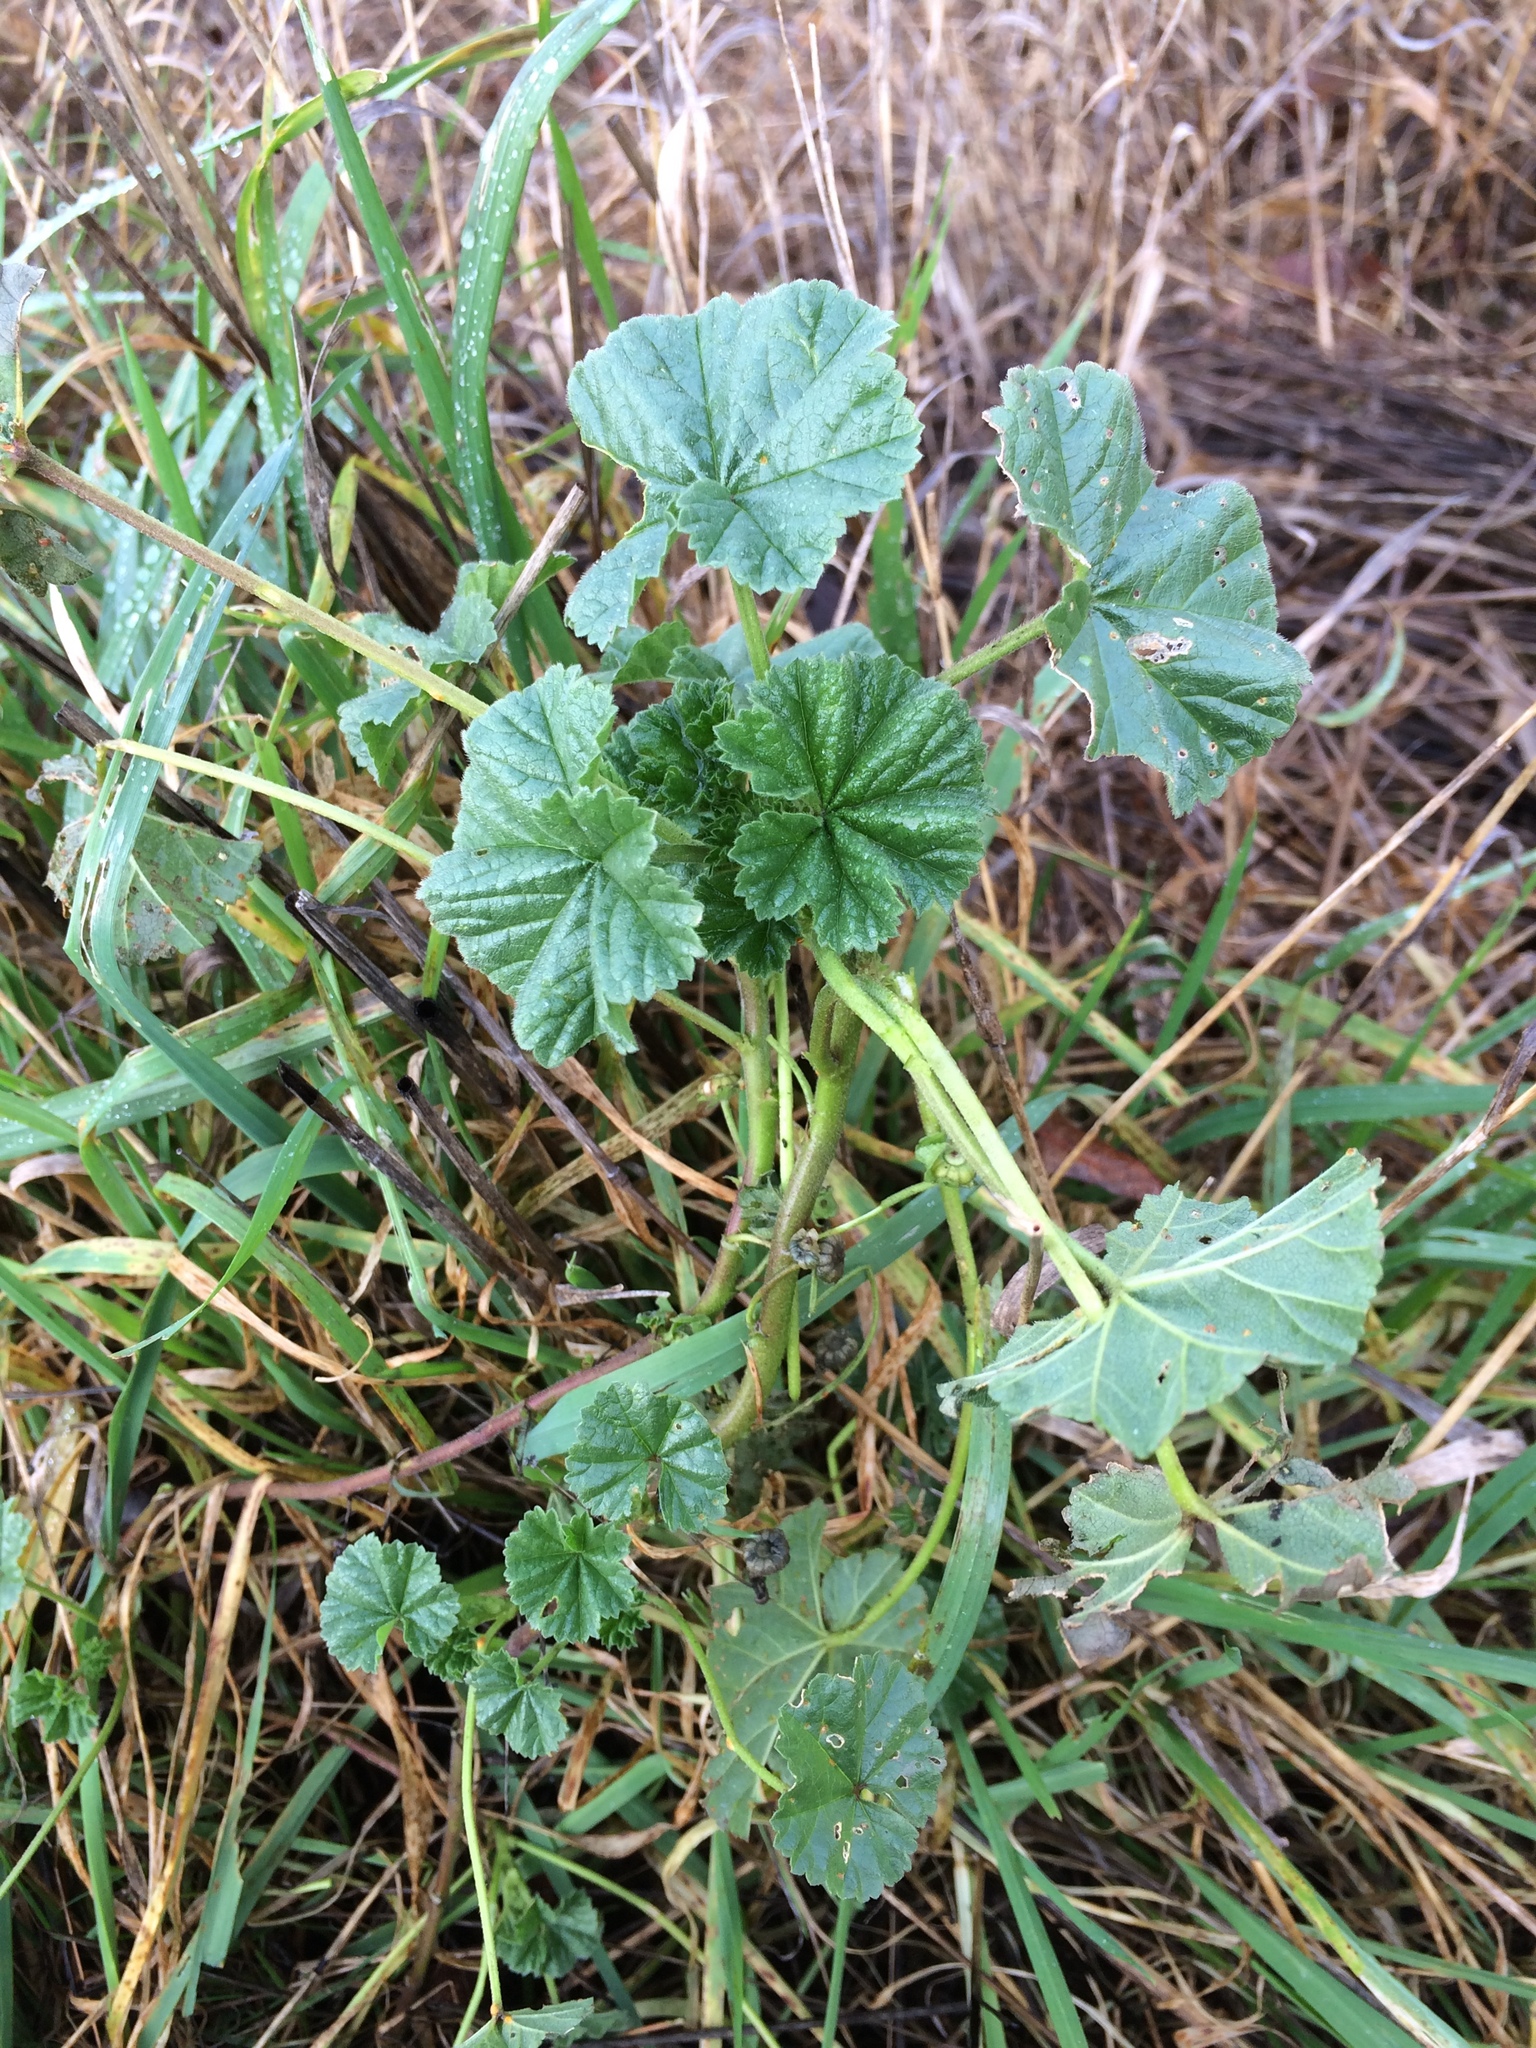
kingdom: Plantae
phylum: Tracheophyta
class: Magnoliopsida
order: Malvales
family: Malvaceae
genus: Malva
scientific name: Malva neglecta
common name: Common mallow
